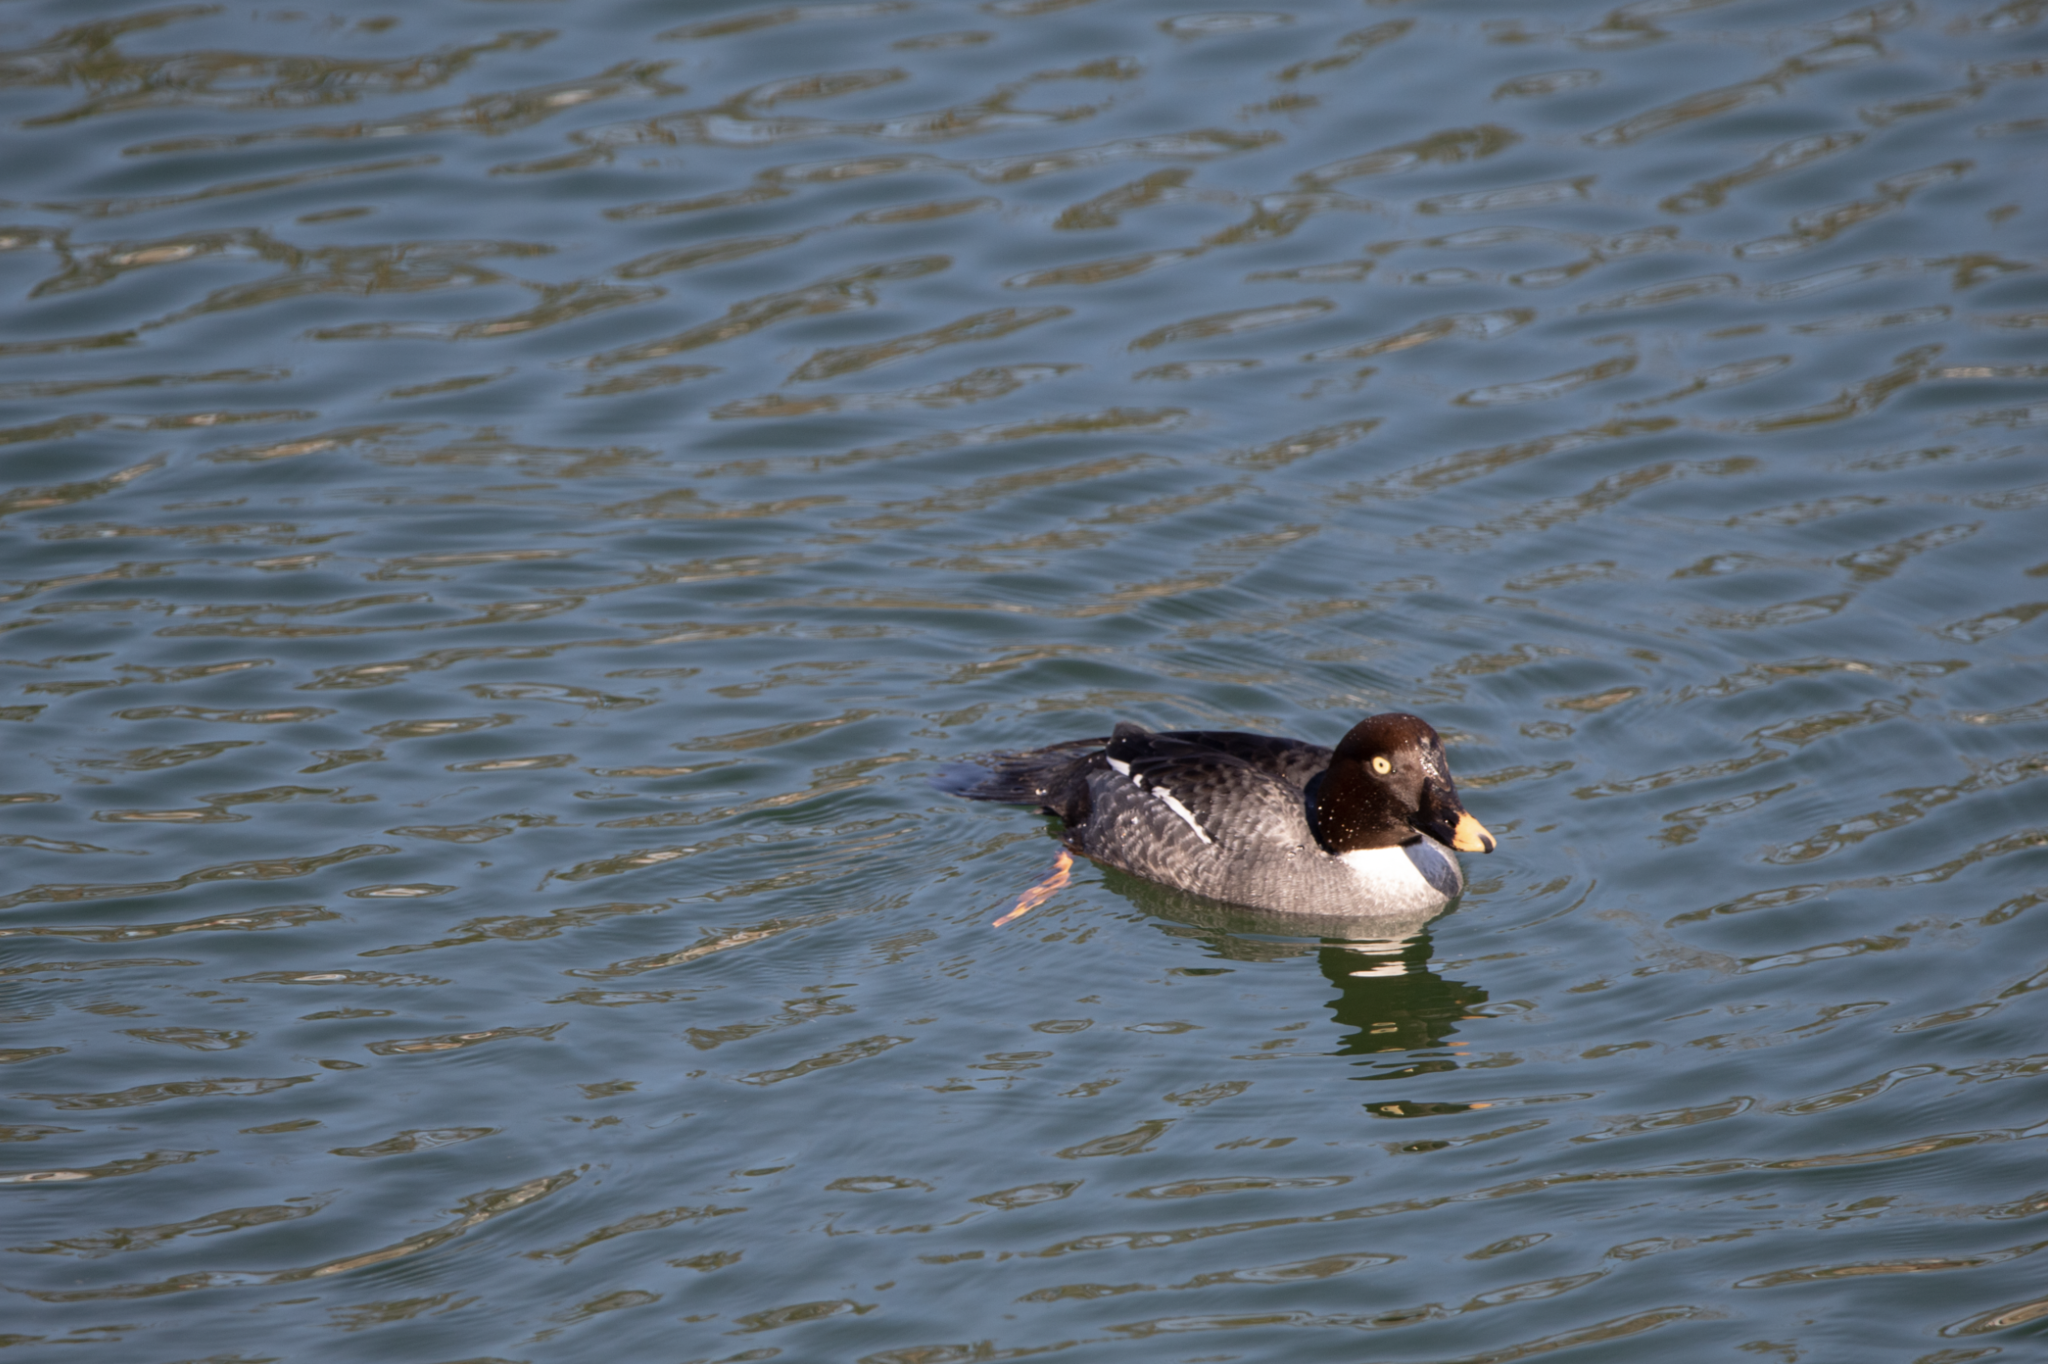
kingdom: Animalia
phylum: Chordata
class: Aves
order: Anseriformes
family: Anatidae
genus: Bucephala
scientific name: Bucephala clangula
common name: Common goldeneye
